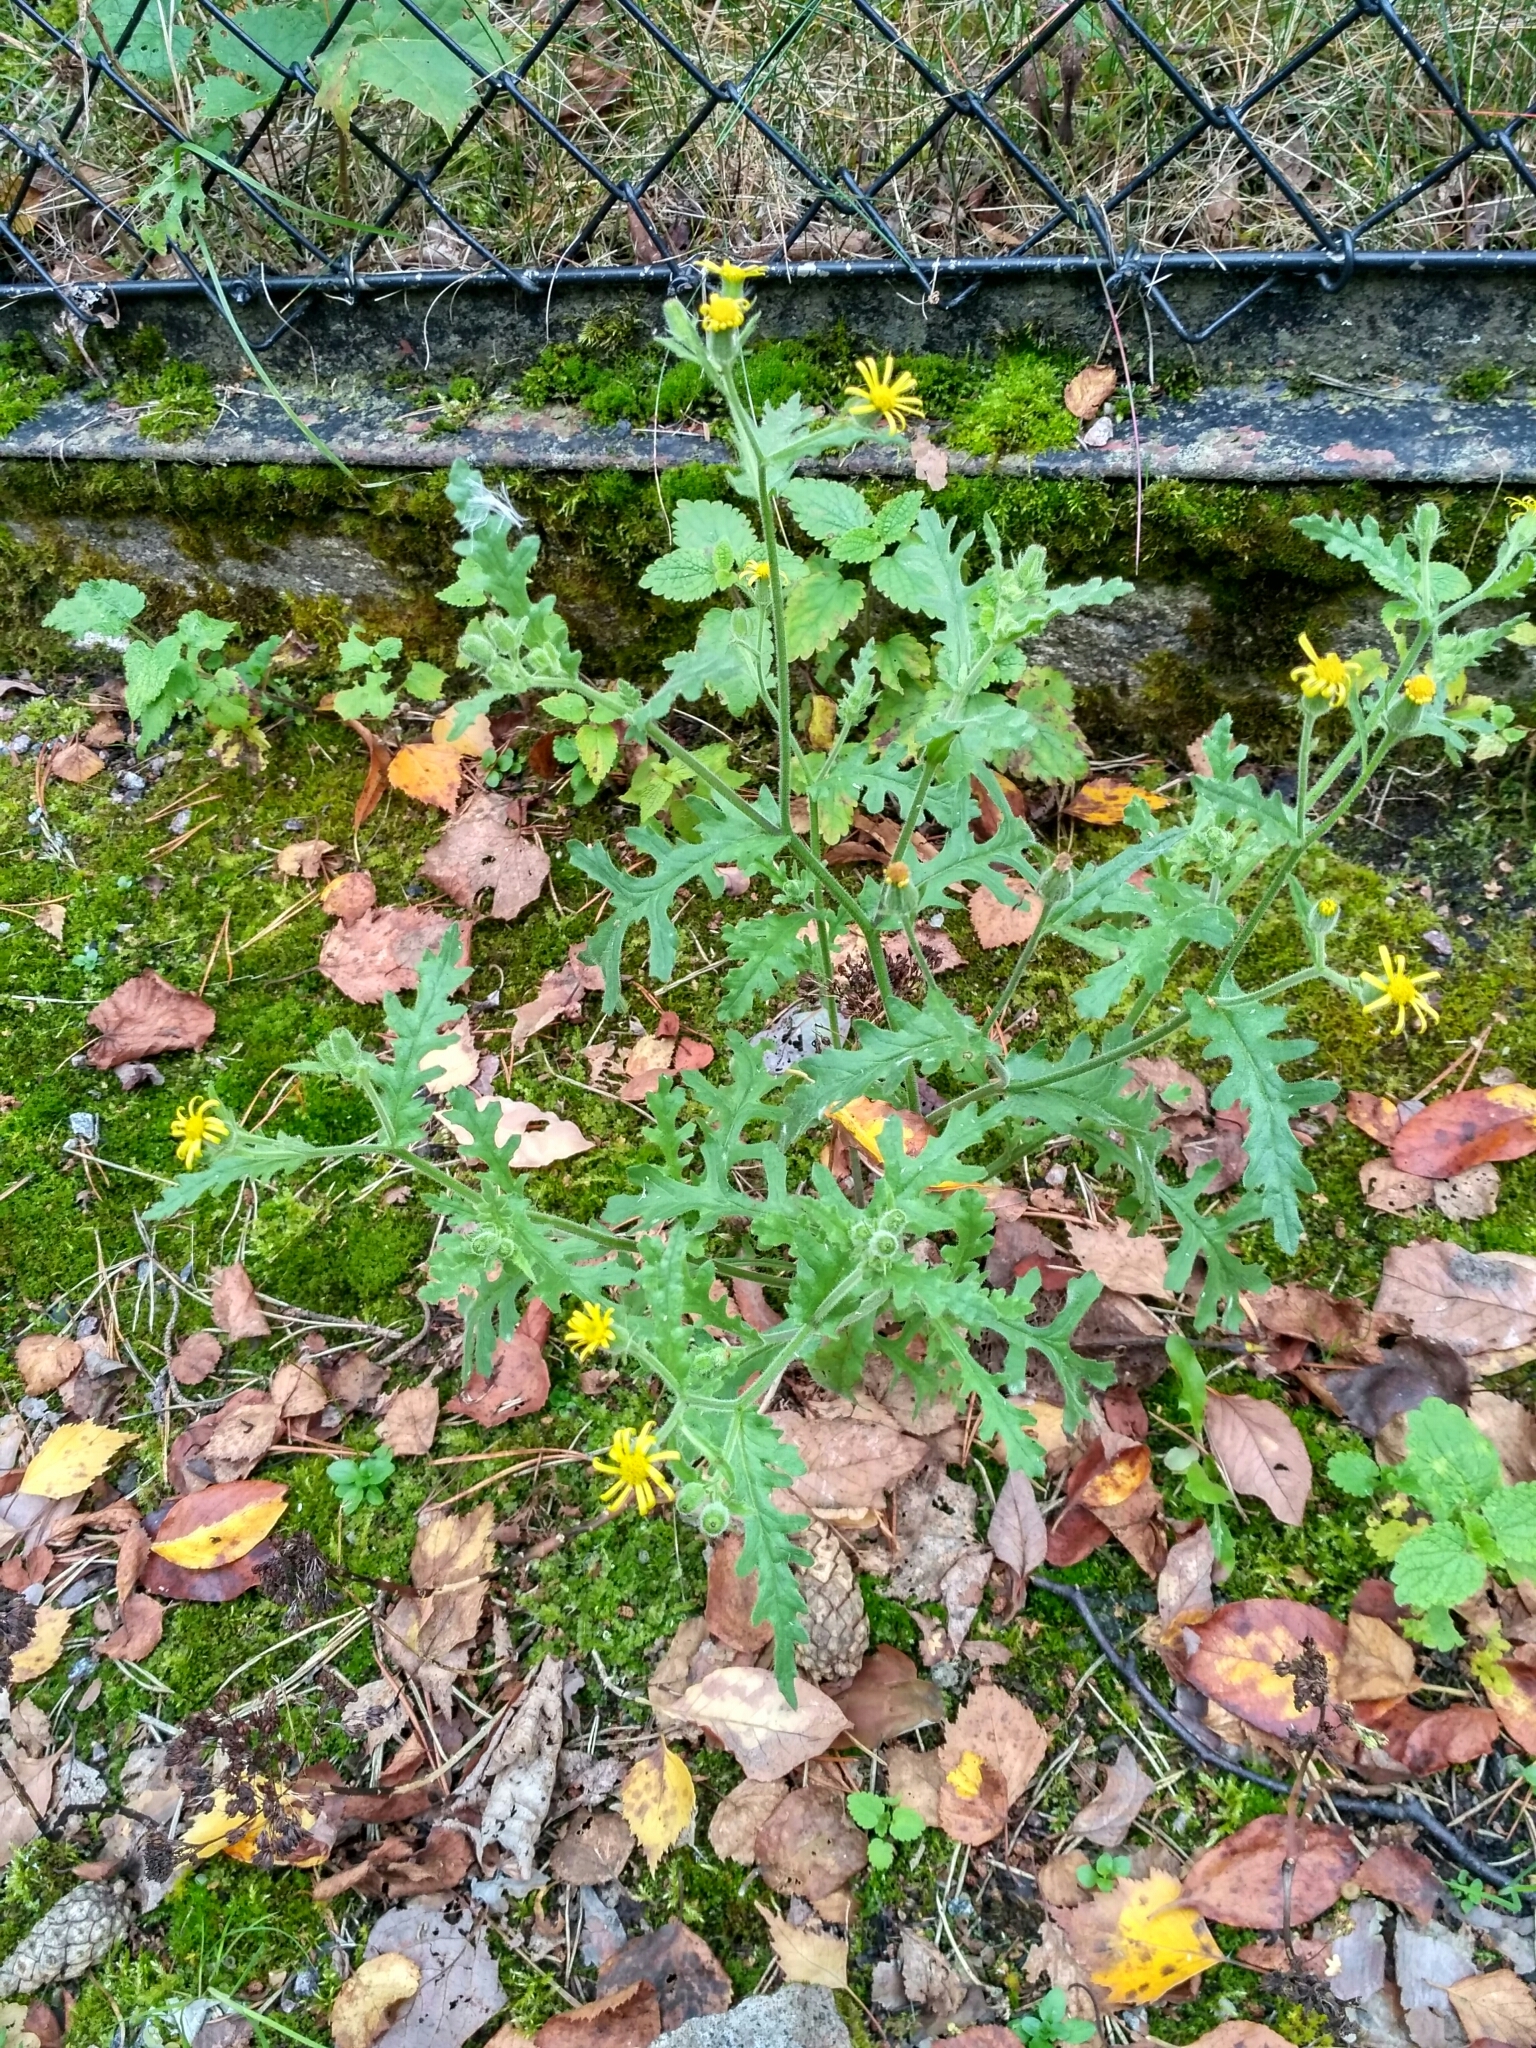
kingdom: Plantae
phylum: Tracheophyta
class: Magnoliopsida
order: Asterales
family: Asteraceae
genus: Senecio
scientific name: Senecio viscosus
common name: Sticky groundsel
